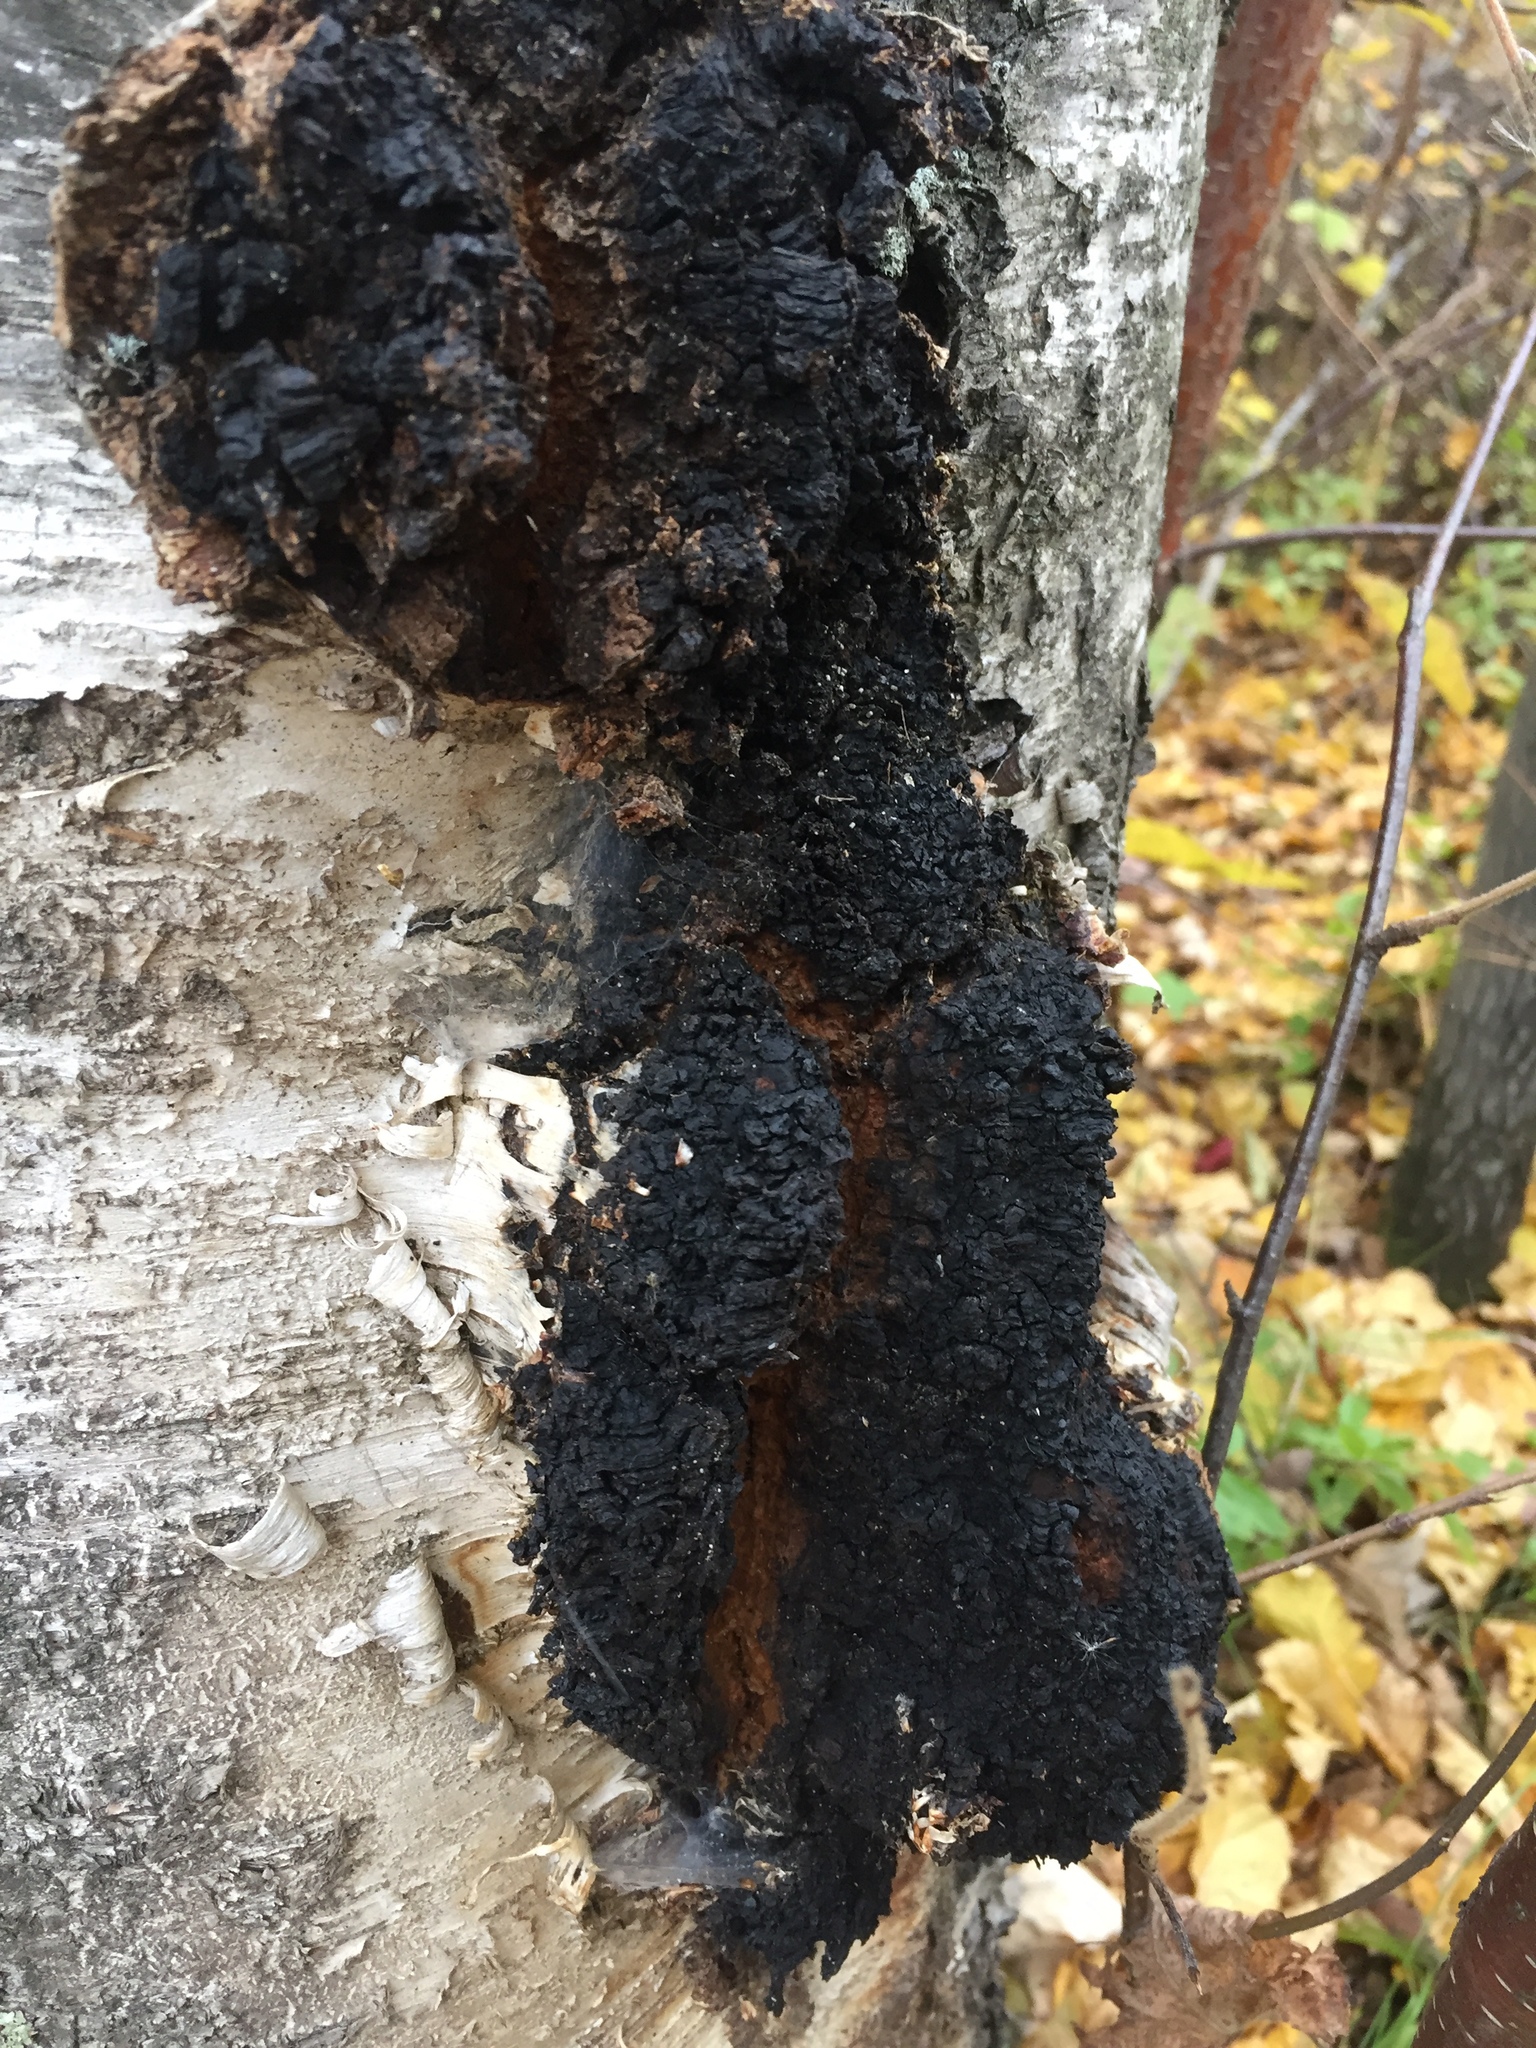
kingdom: Fungi
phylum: Basidiomycota
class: Agaricomycetes
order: Hymenochaetales
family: Hymenochaetaceae
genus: Inonotus
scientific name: Inonotus obliquus
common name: Chaga
